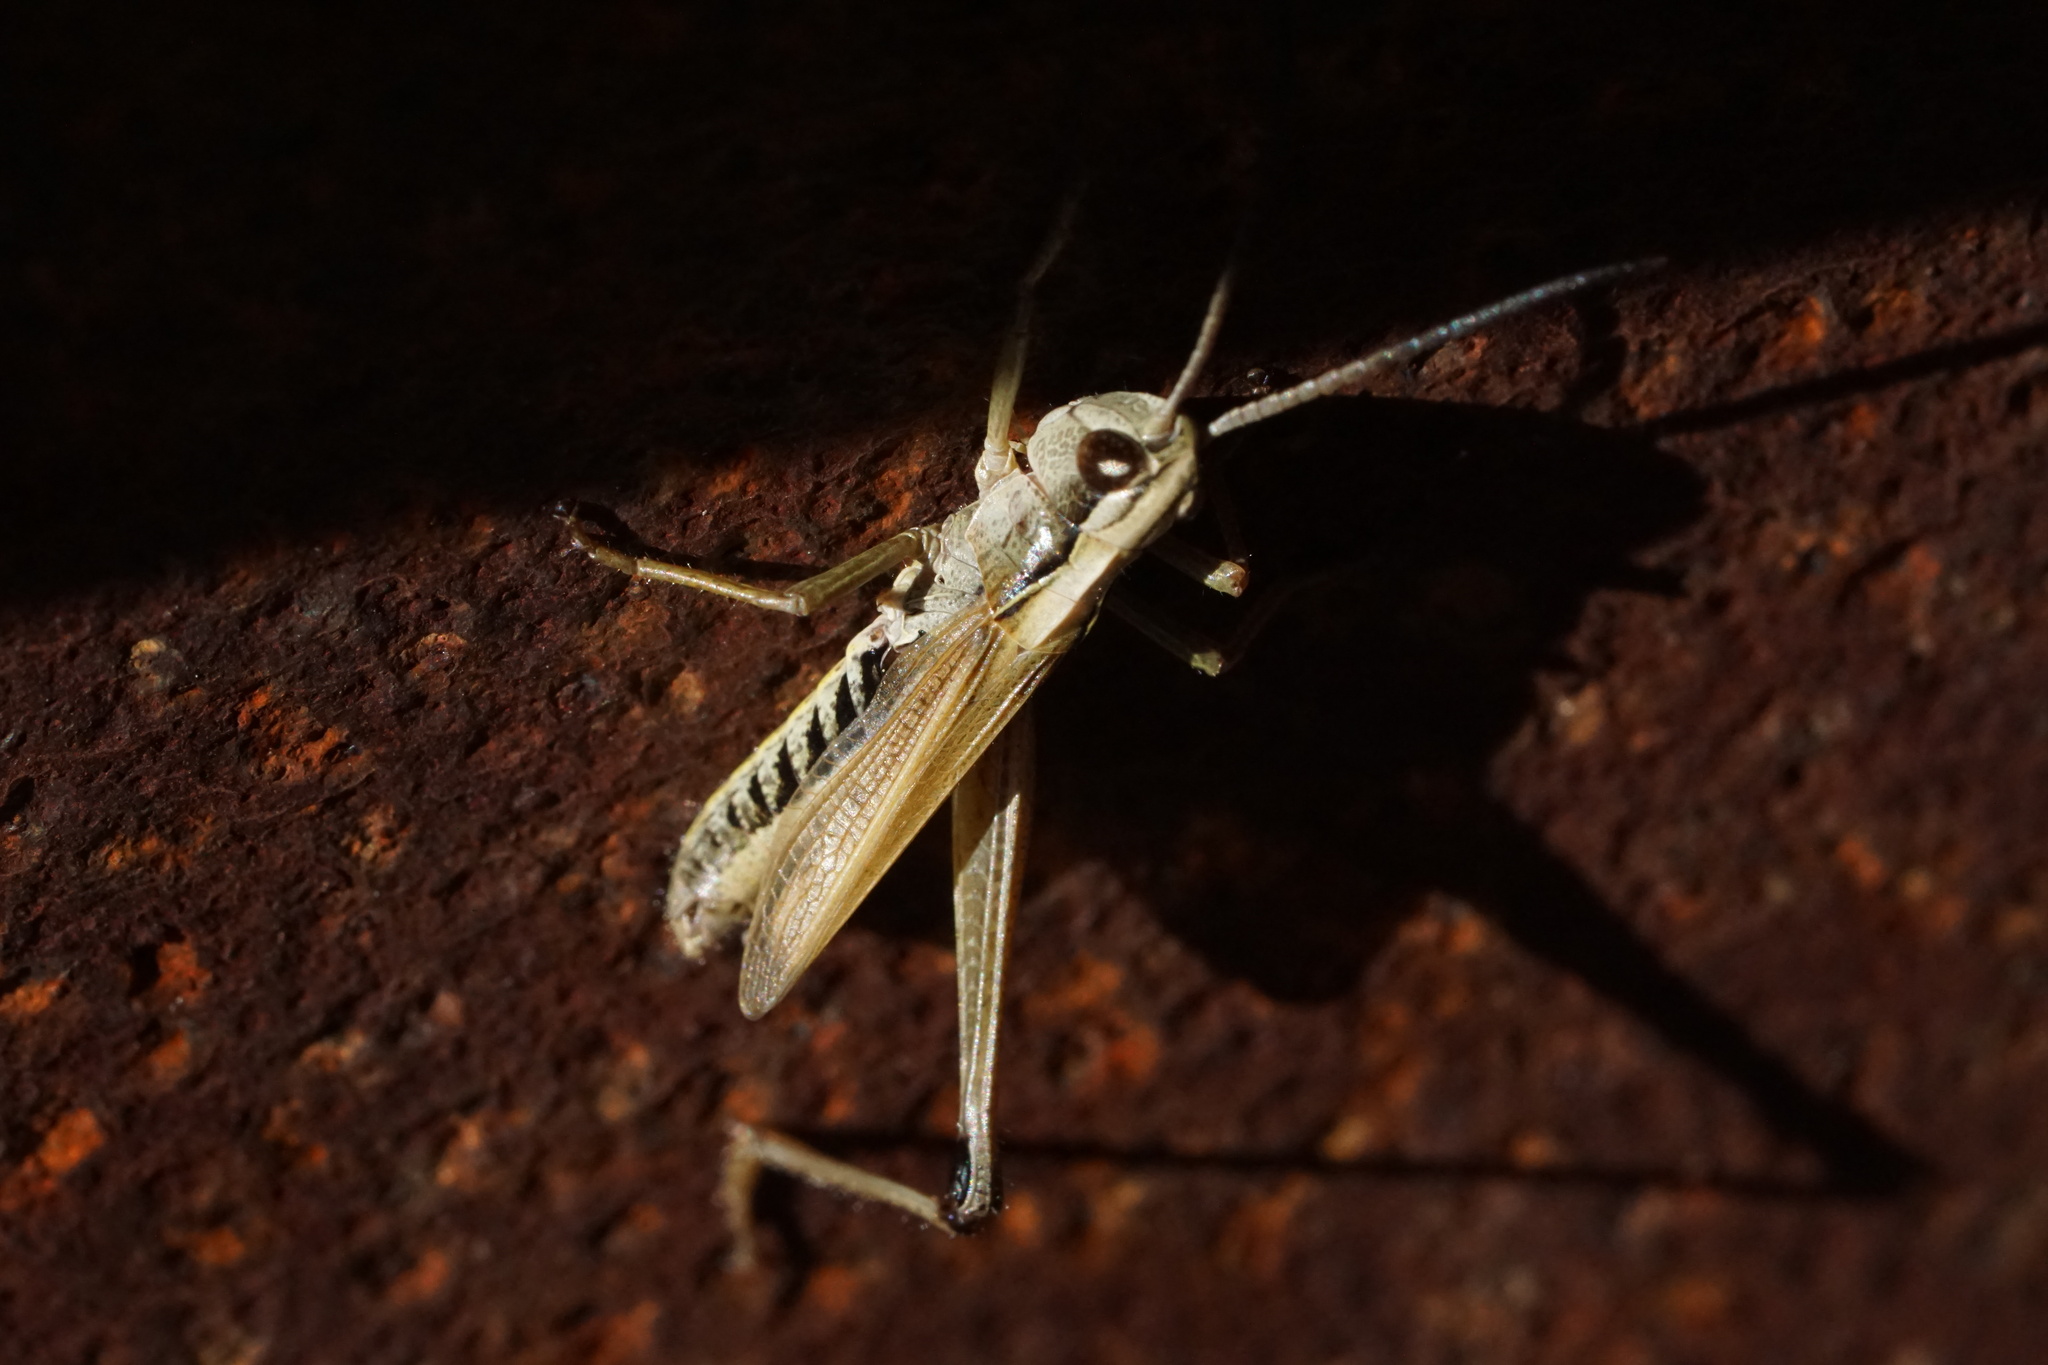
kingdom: Animalia
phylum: Arthropoda
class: Insecta
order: Orthoptera
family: Acrididae
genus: Pseudochorthippus
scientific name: Pseudochorthippus curtipennis
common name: Marsh meadow grasshopper
